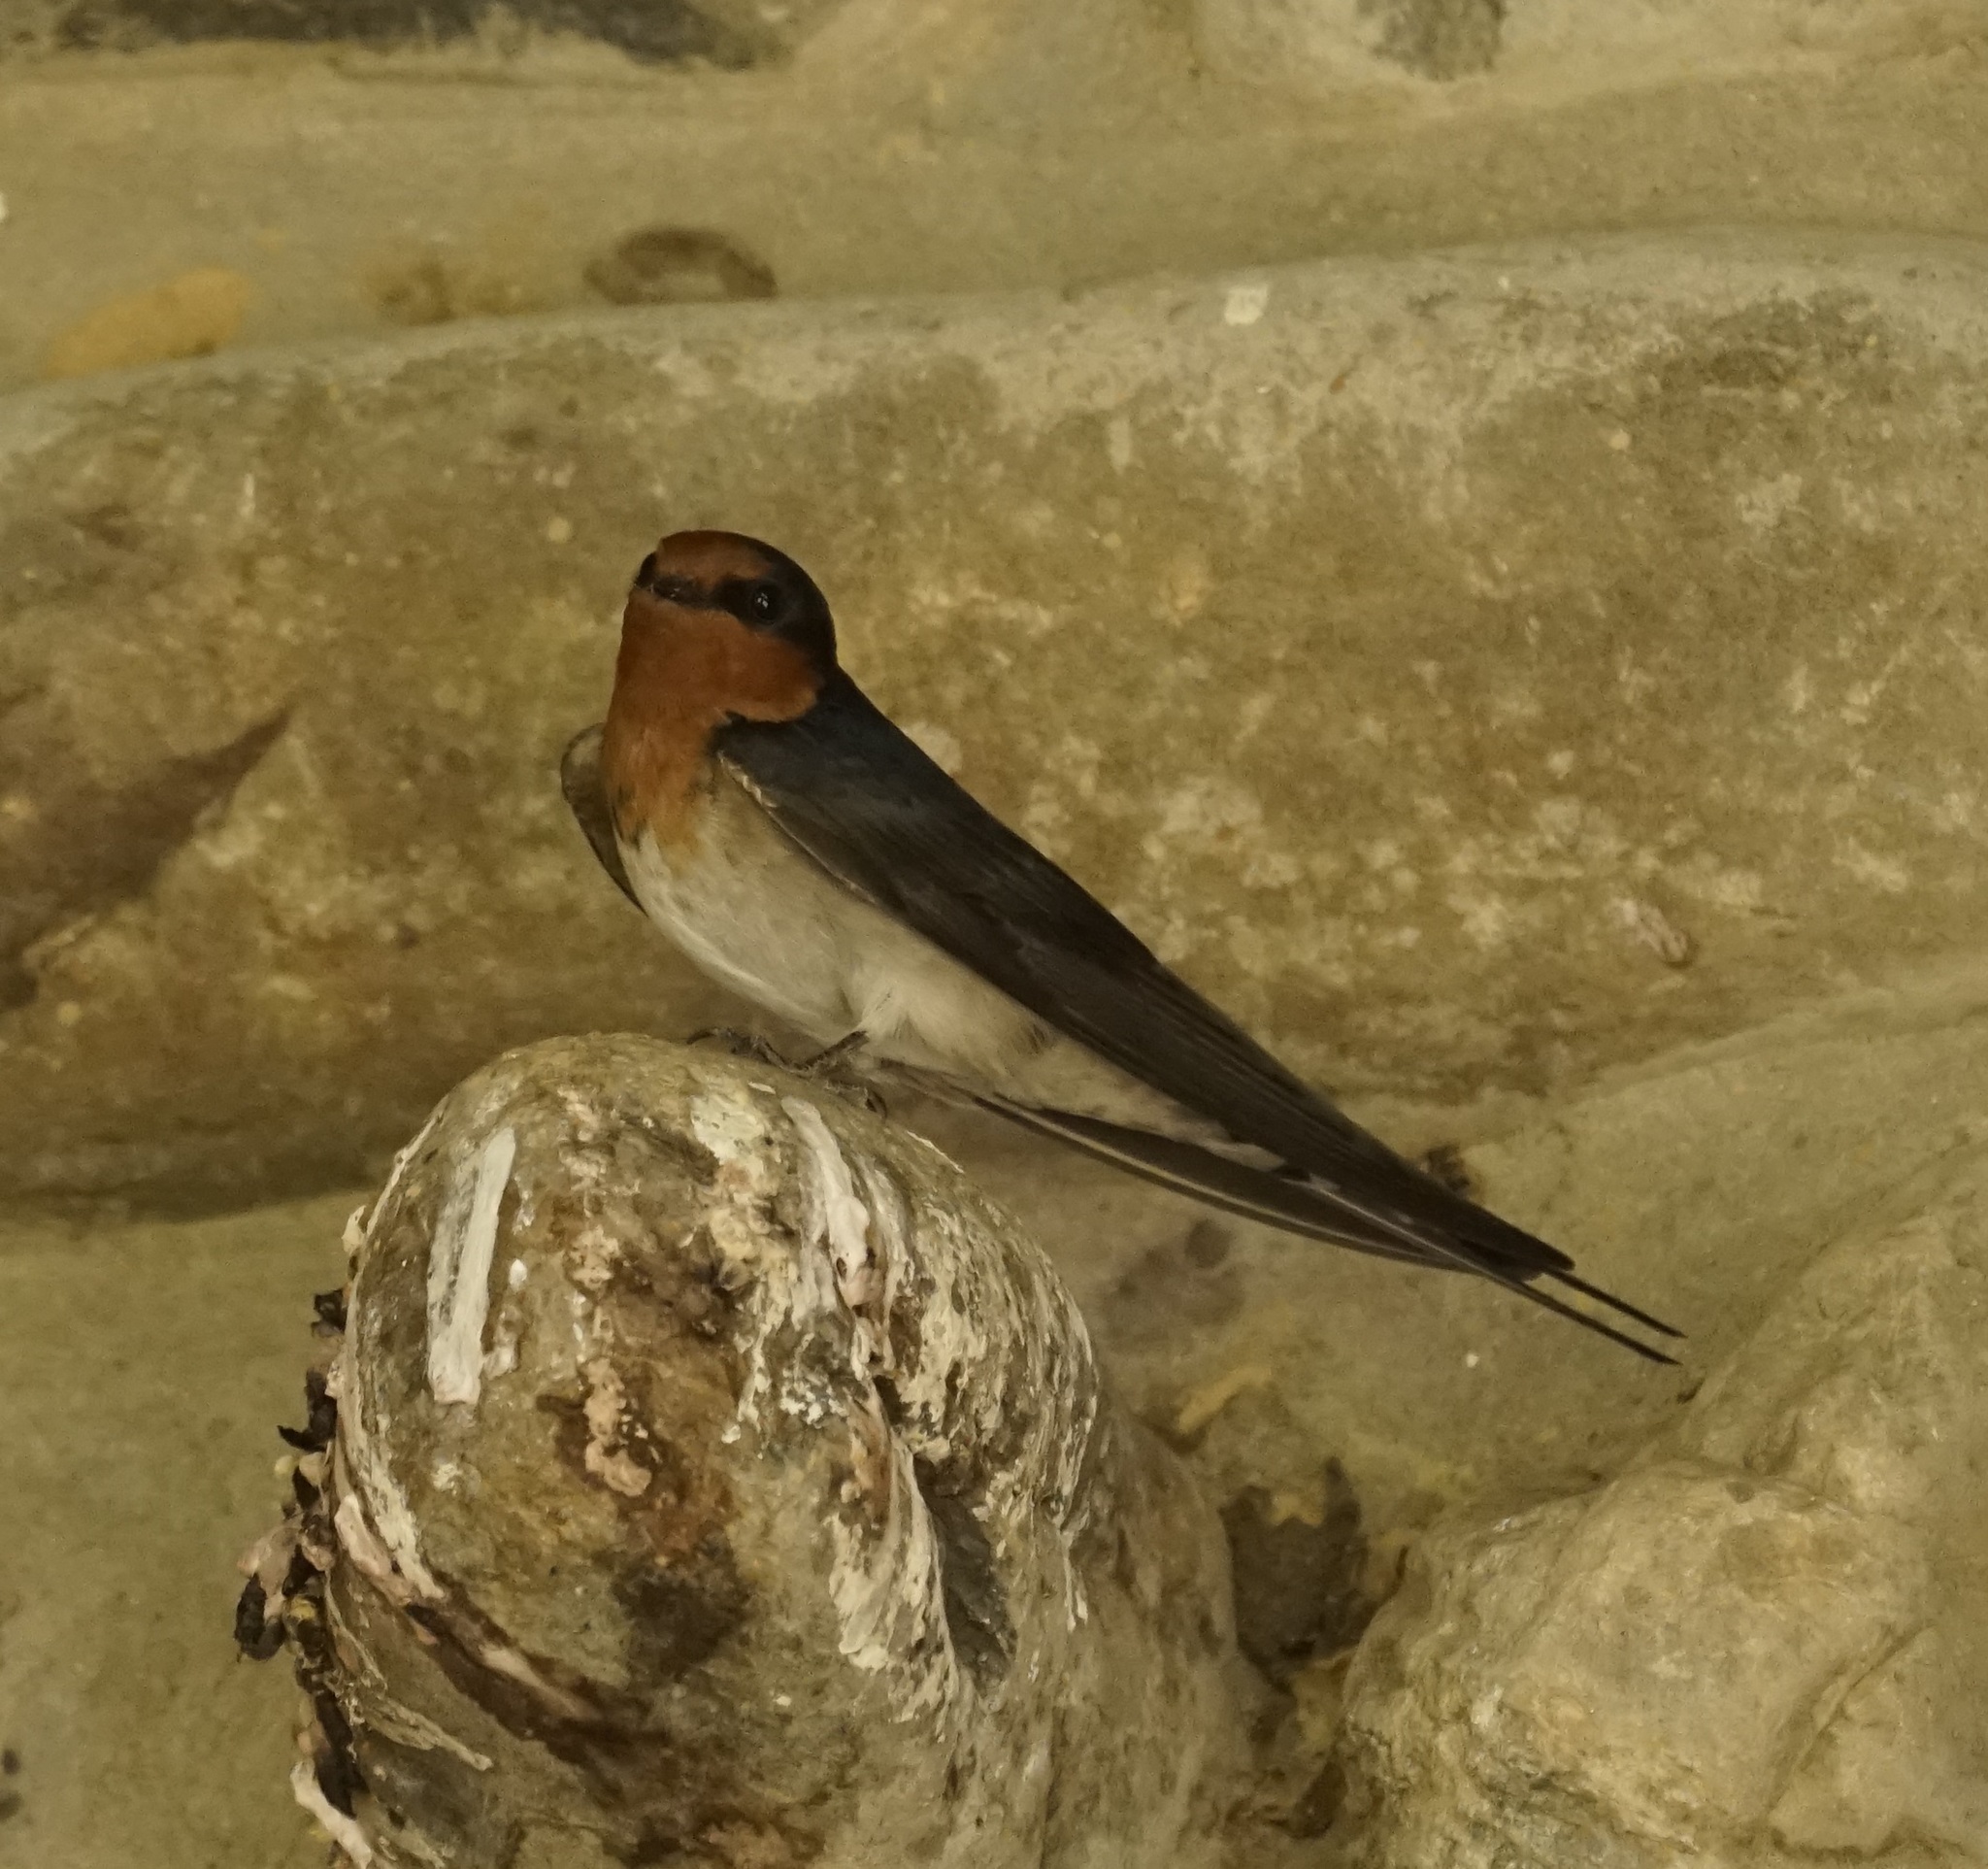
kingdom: Animalia
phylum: Chordata
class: Aves
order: Passeriformes
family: Hirundinidae
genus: Hirundo
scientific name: Hirundo neoxena
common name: Welcome swallow
